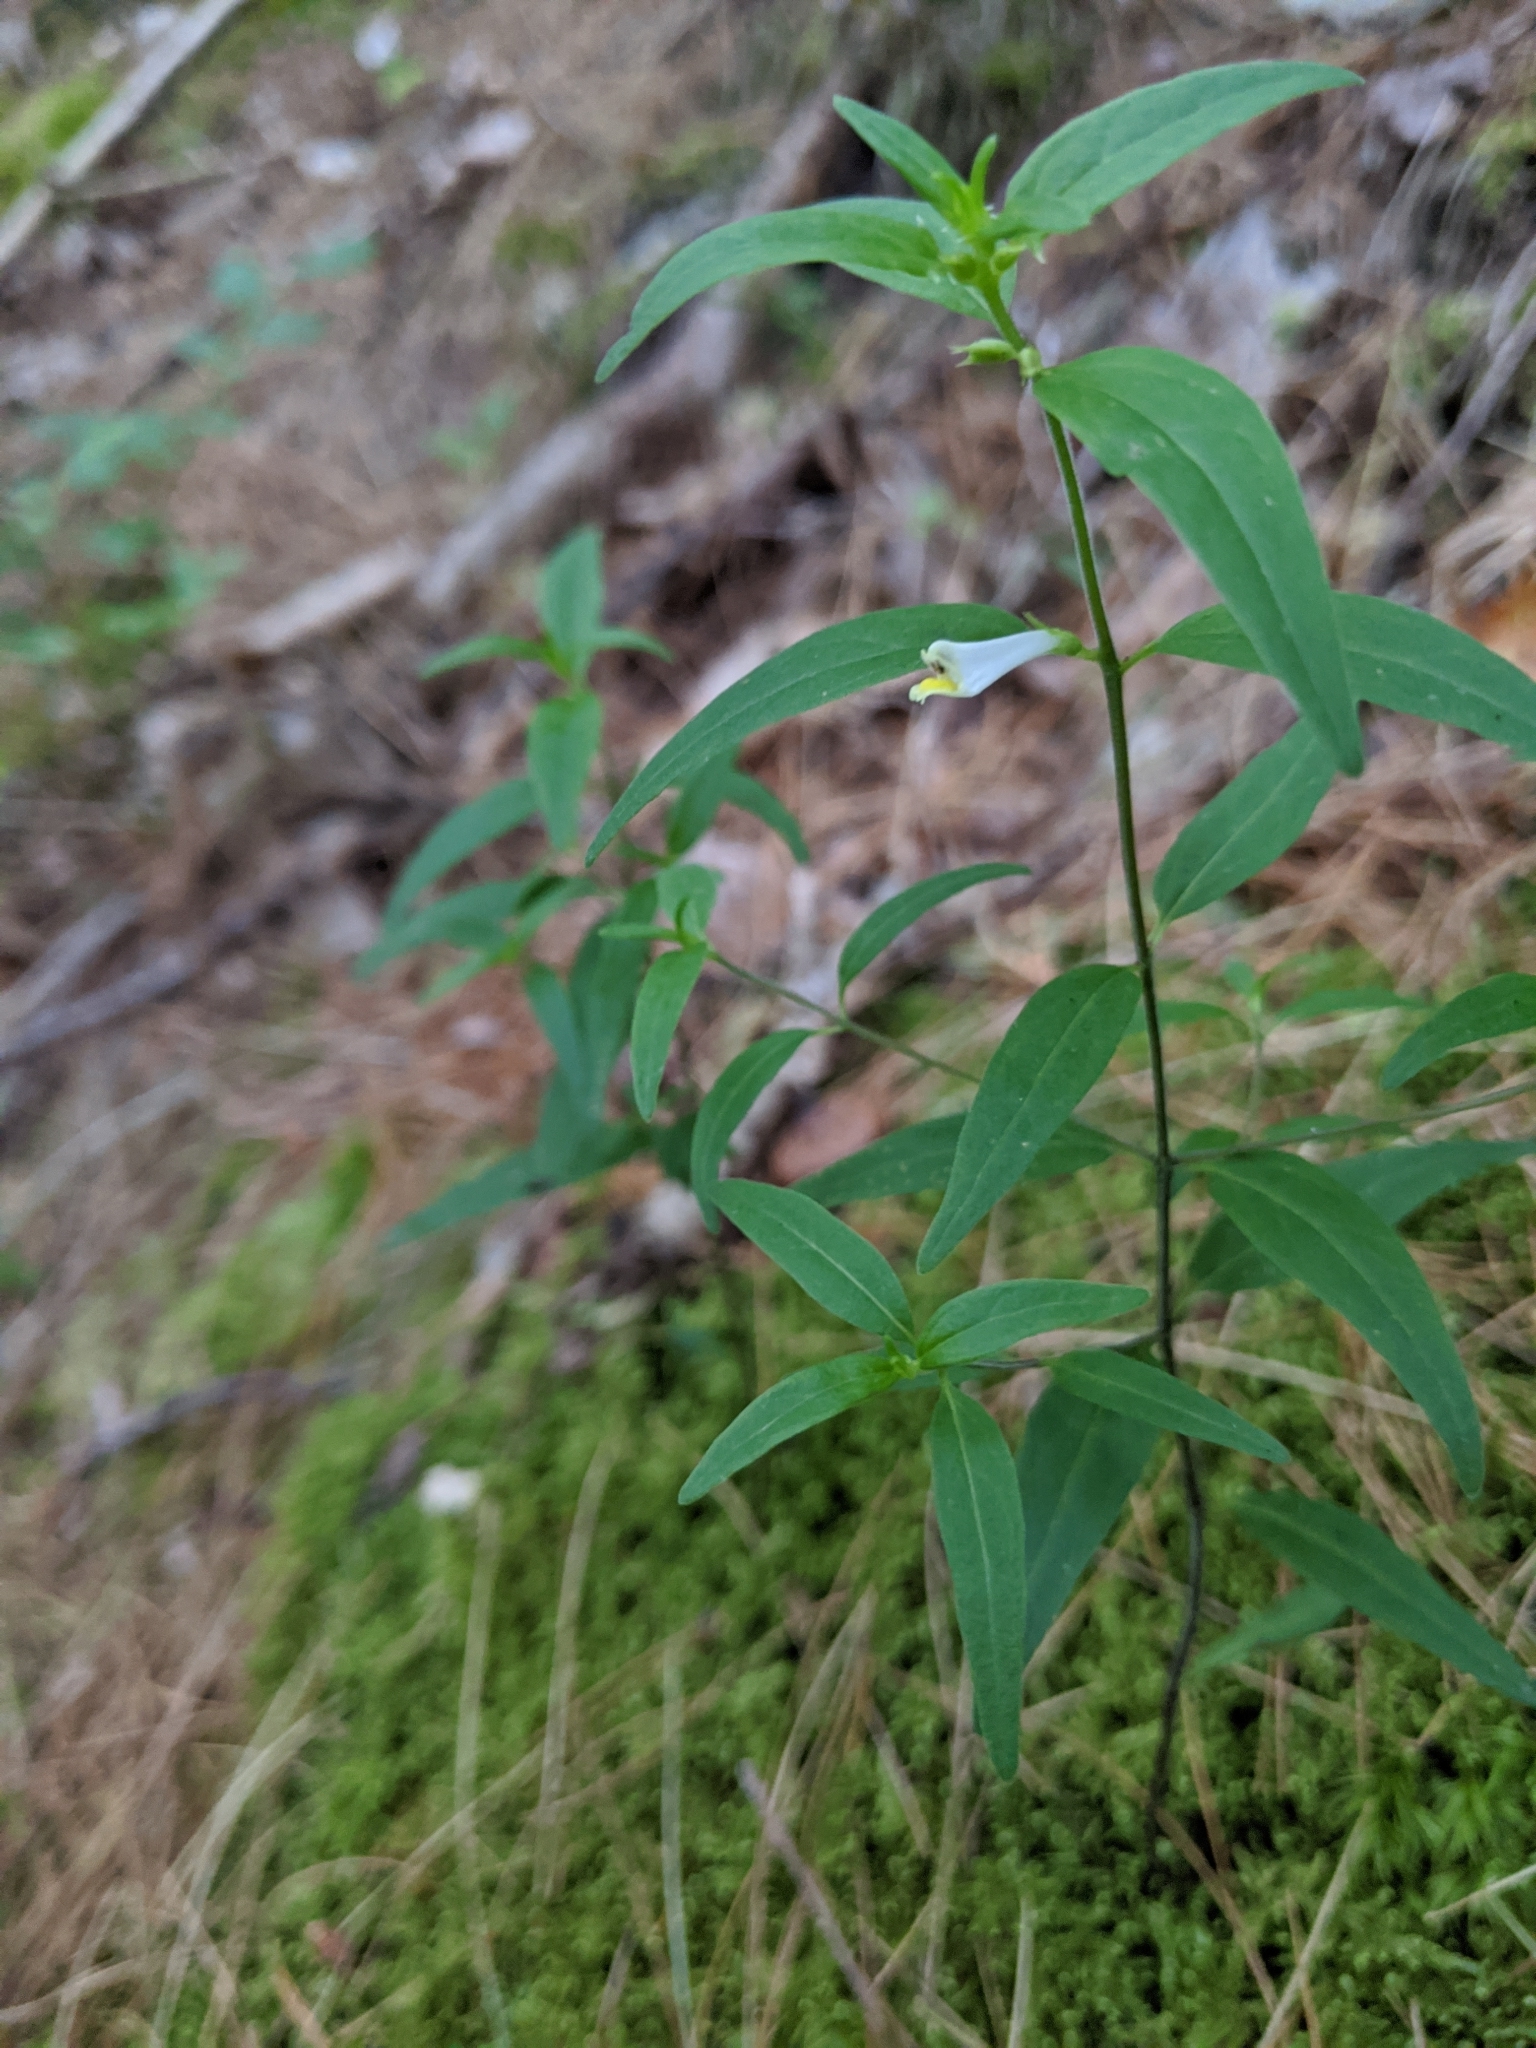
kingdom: Plantae
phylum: Tracheophyta
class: Magnoliopsida
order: Lamiales
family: Orobanchaceae
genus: Melampyrum
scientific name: Melampyrum lineare
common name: American cow-wheat
